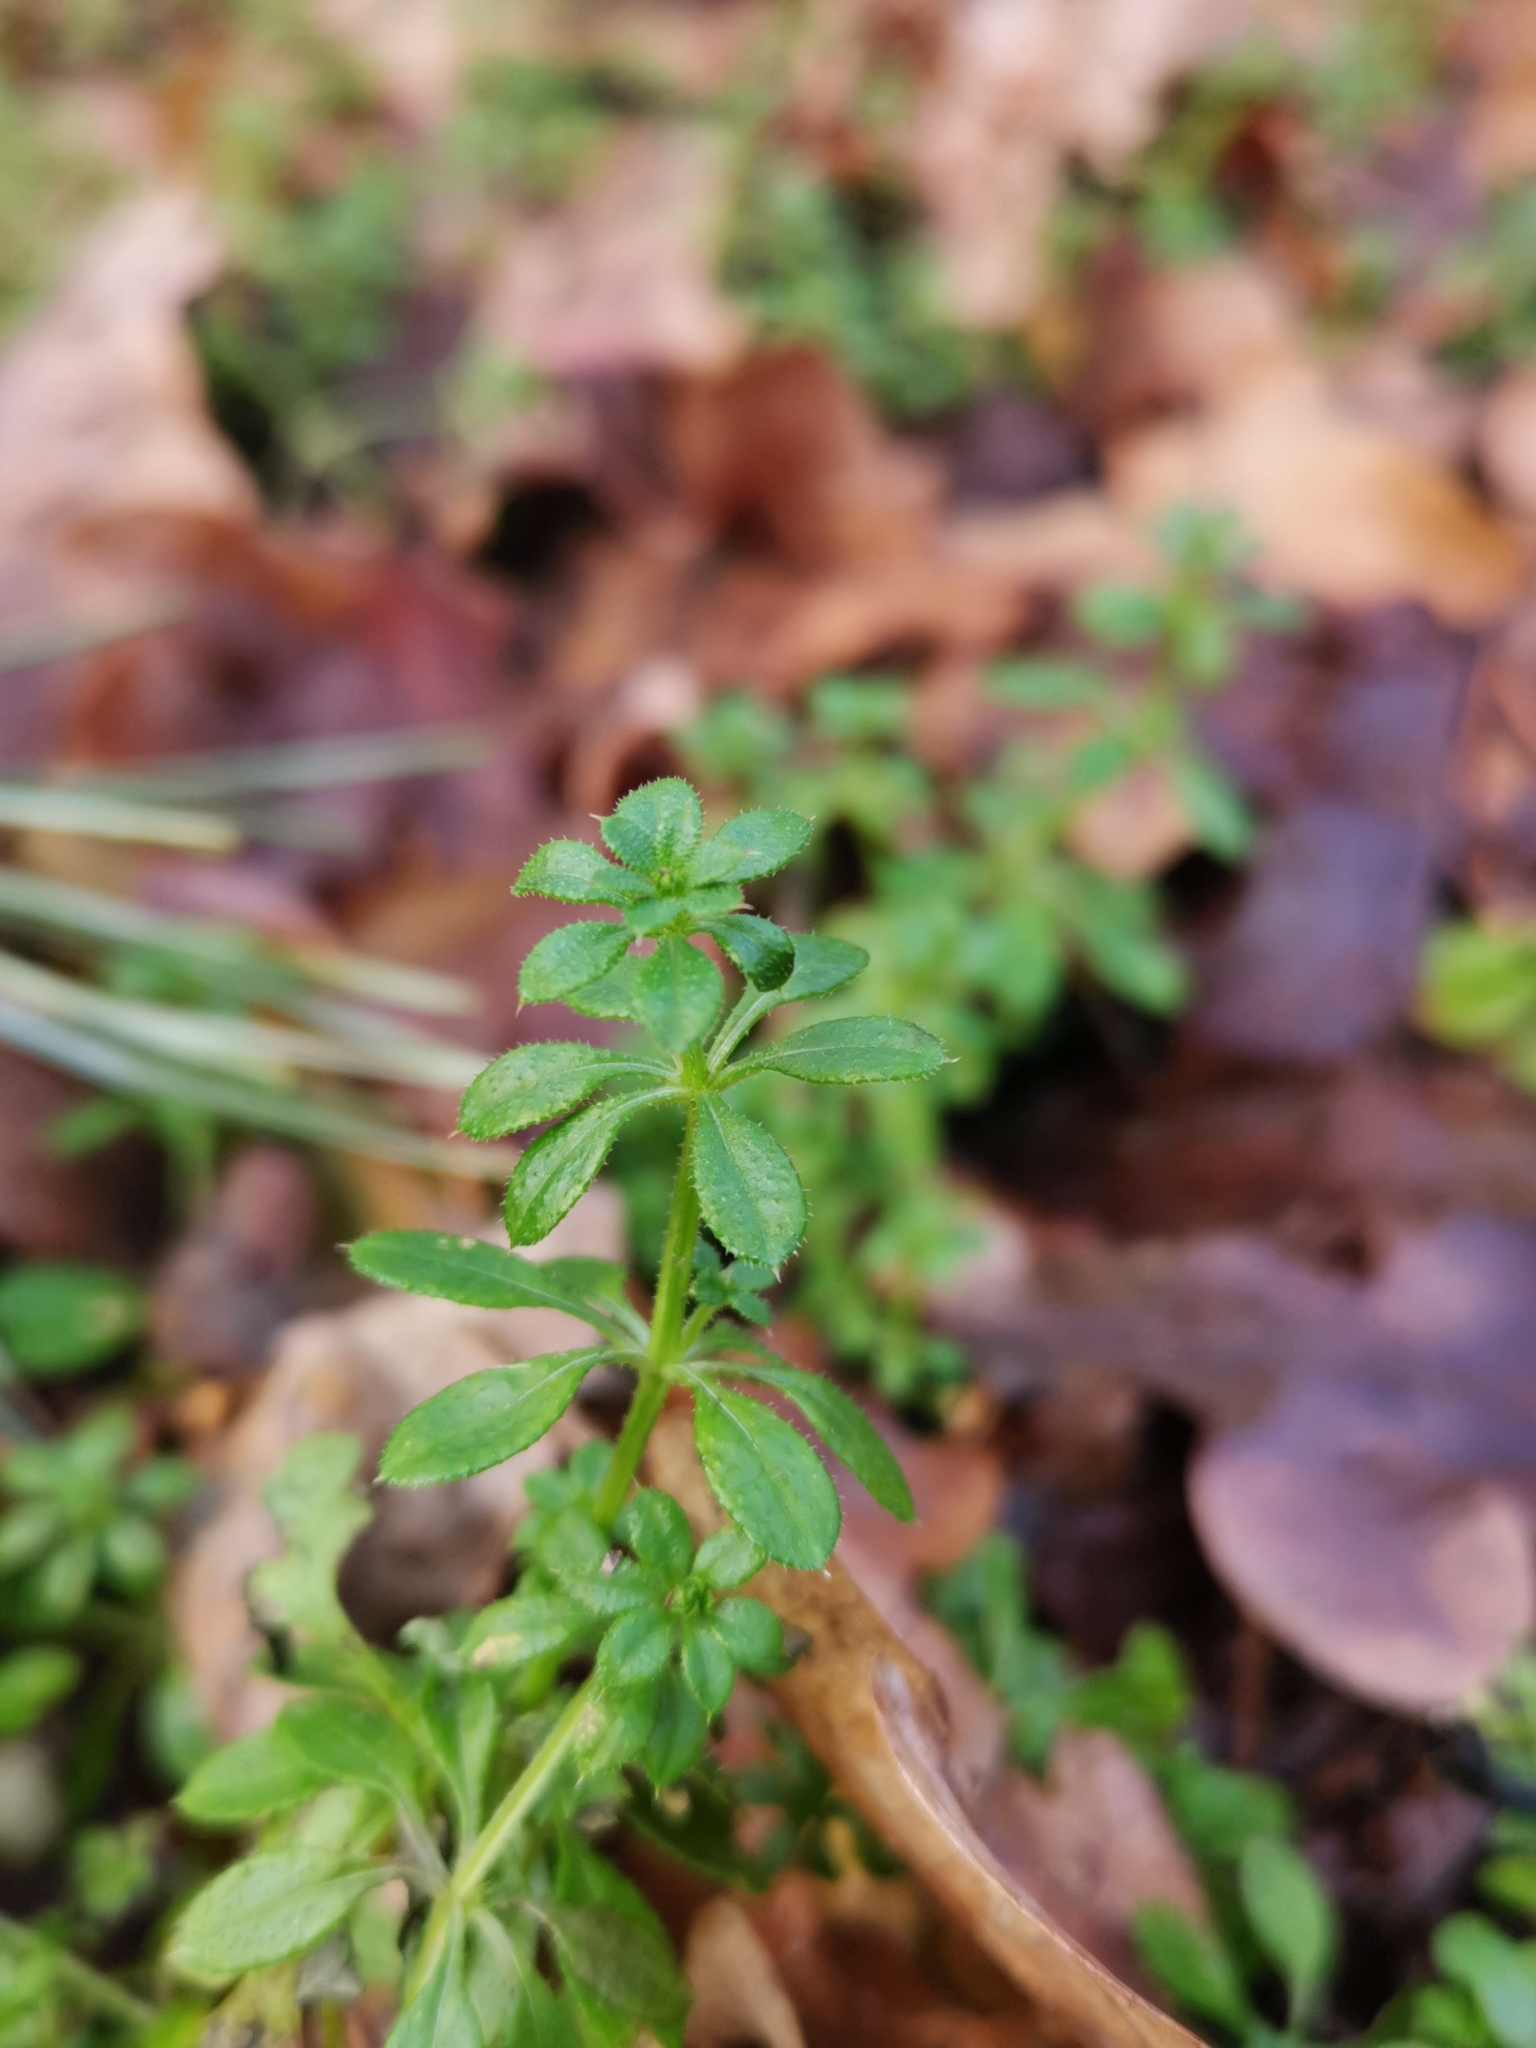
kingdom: Plantae
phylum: Tracheophyta
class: Magnoliopsida
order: Gentianales
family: Rubiaceae
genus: Galium
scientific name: Galium aparine
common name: Cleavers
